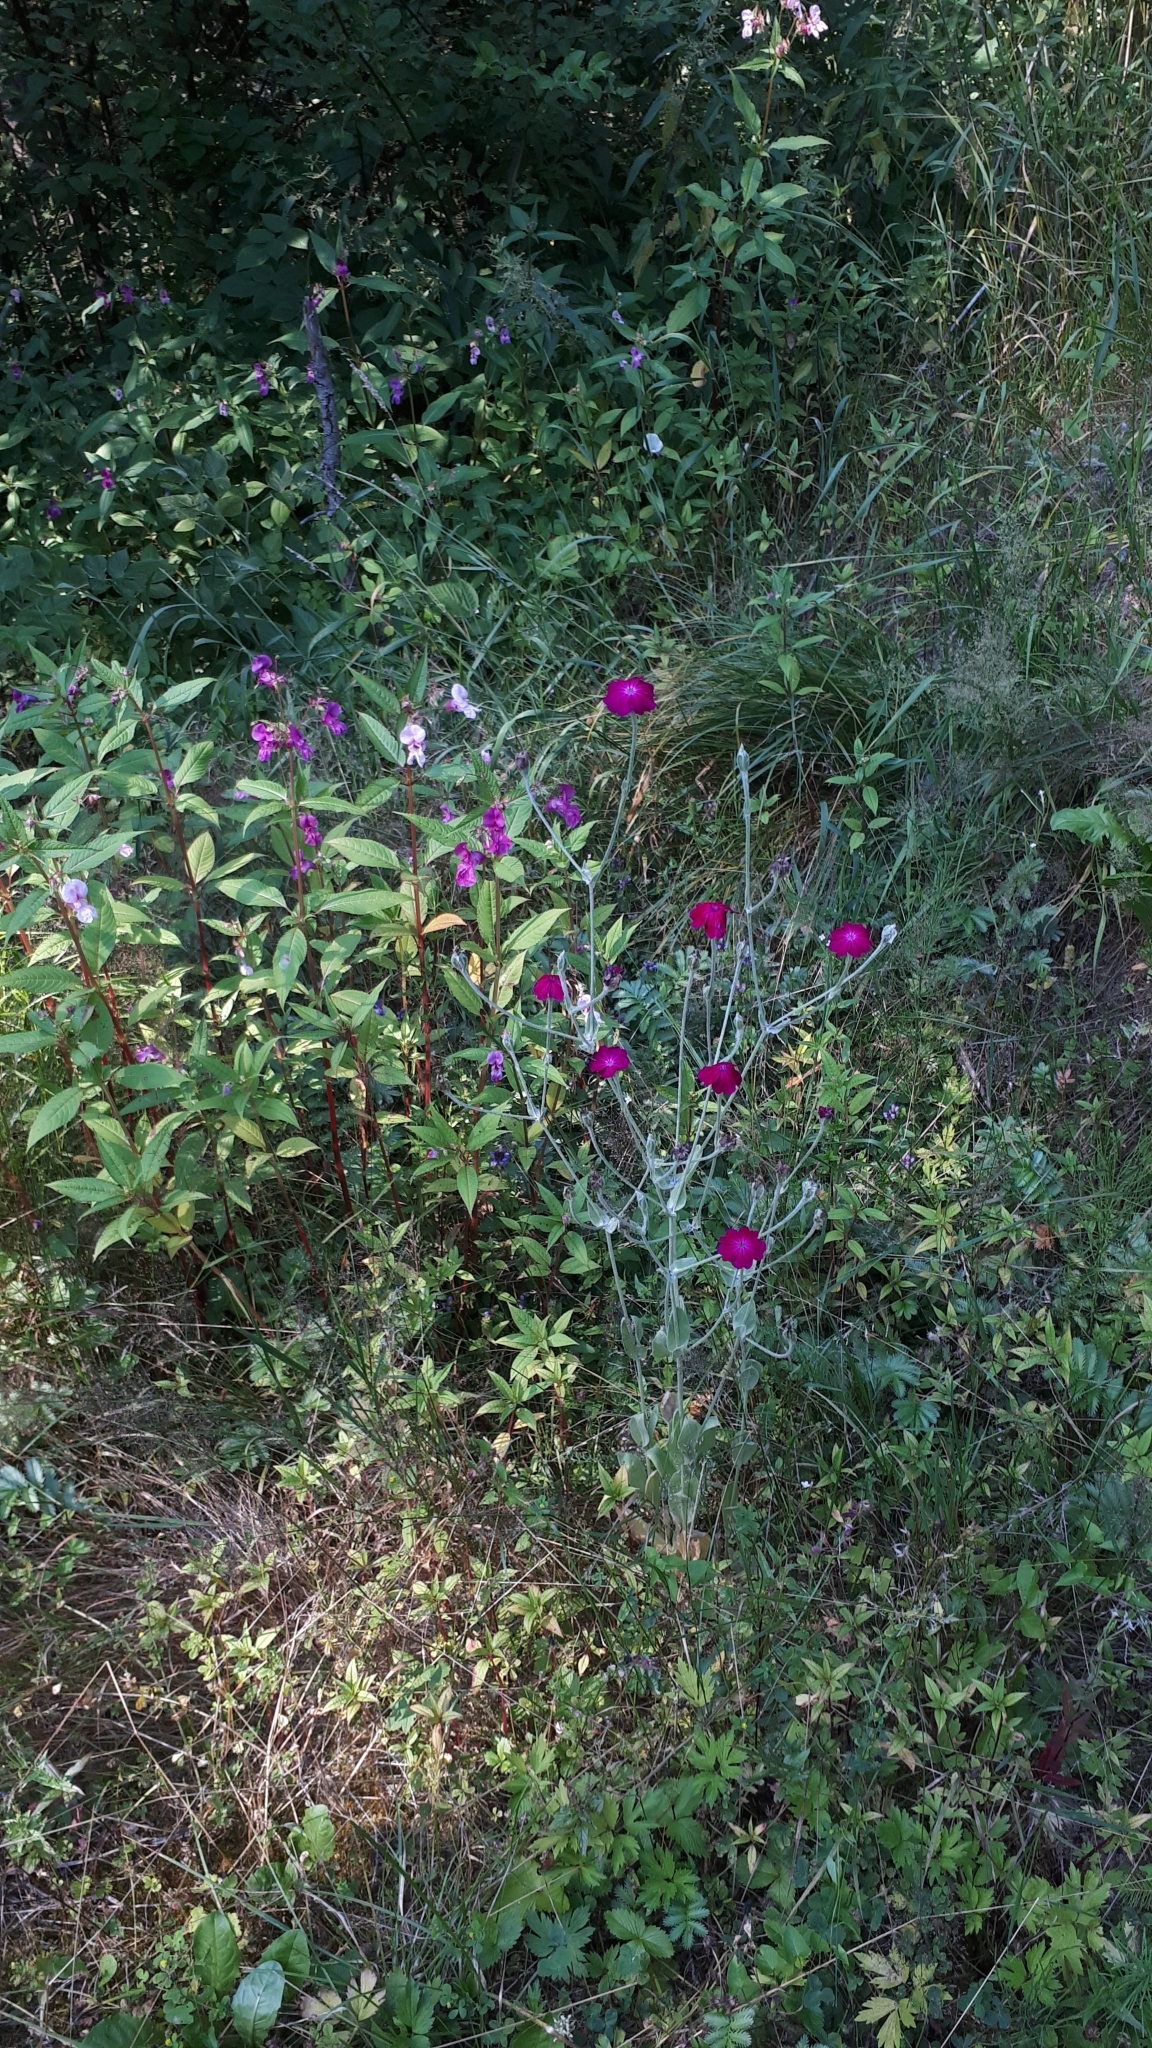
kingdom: Plantae
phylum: Tracheophyta
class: Magnoliopsida
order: Caryophyllales
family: Caryophyllaceae
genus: Silene
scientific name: Silene coronaria
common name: Rose campion
